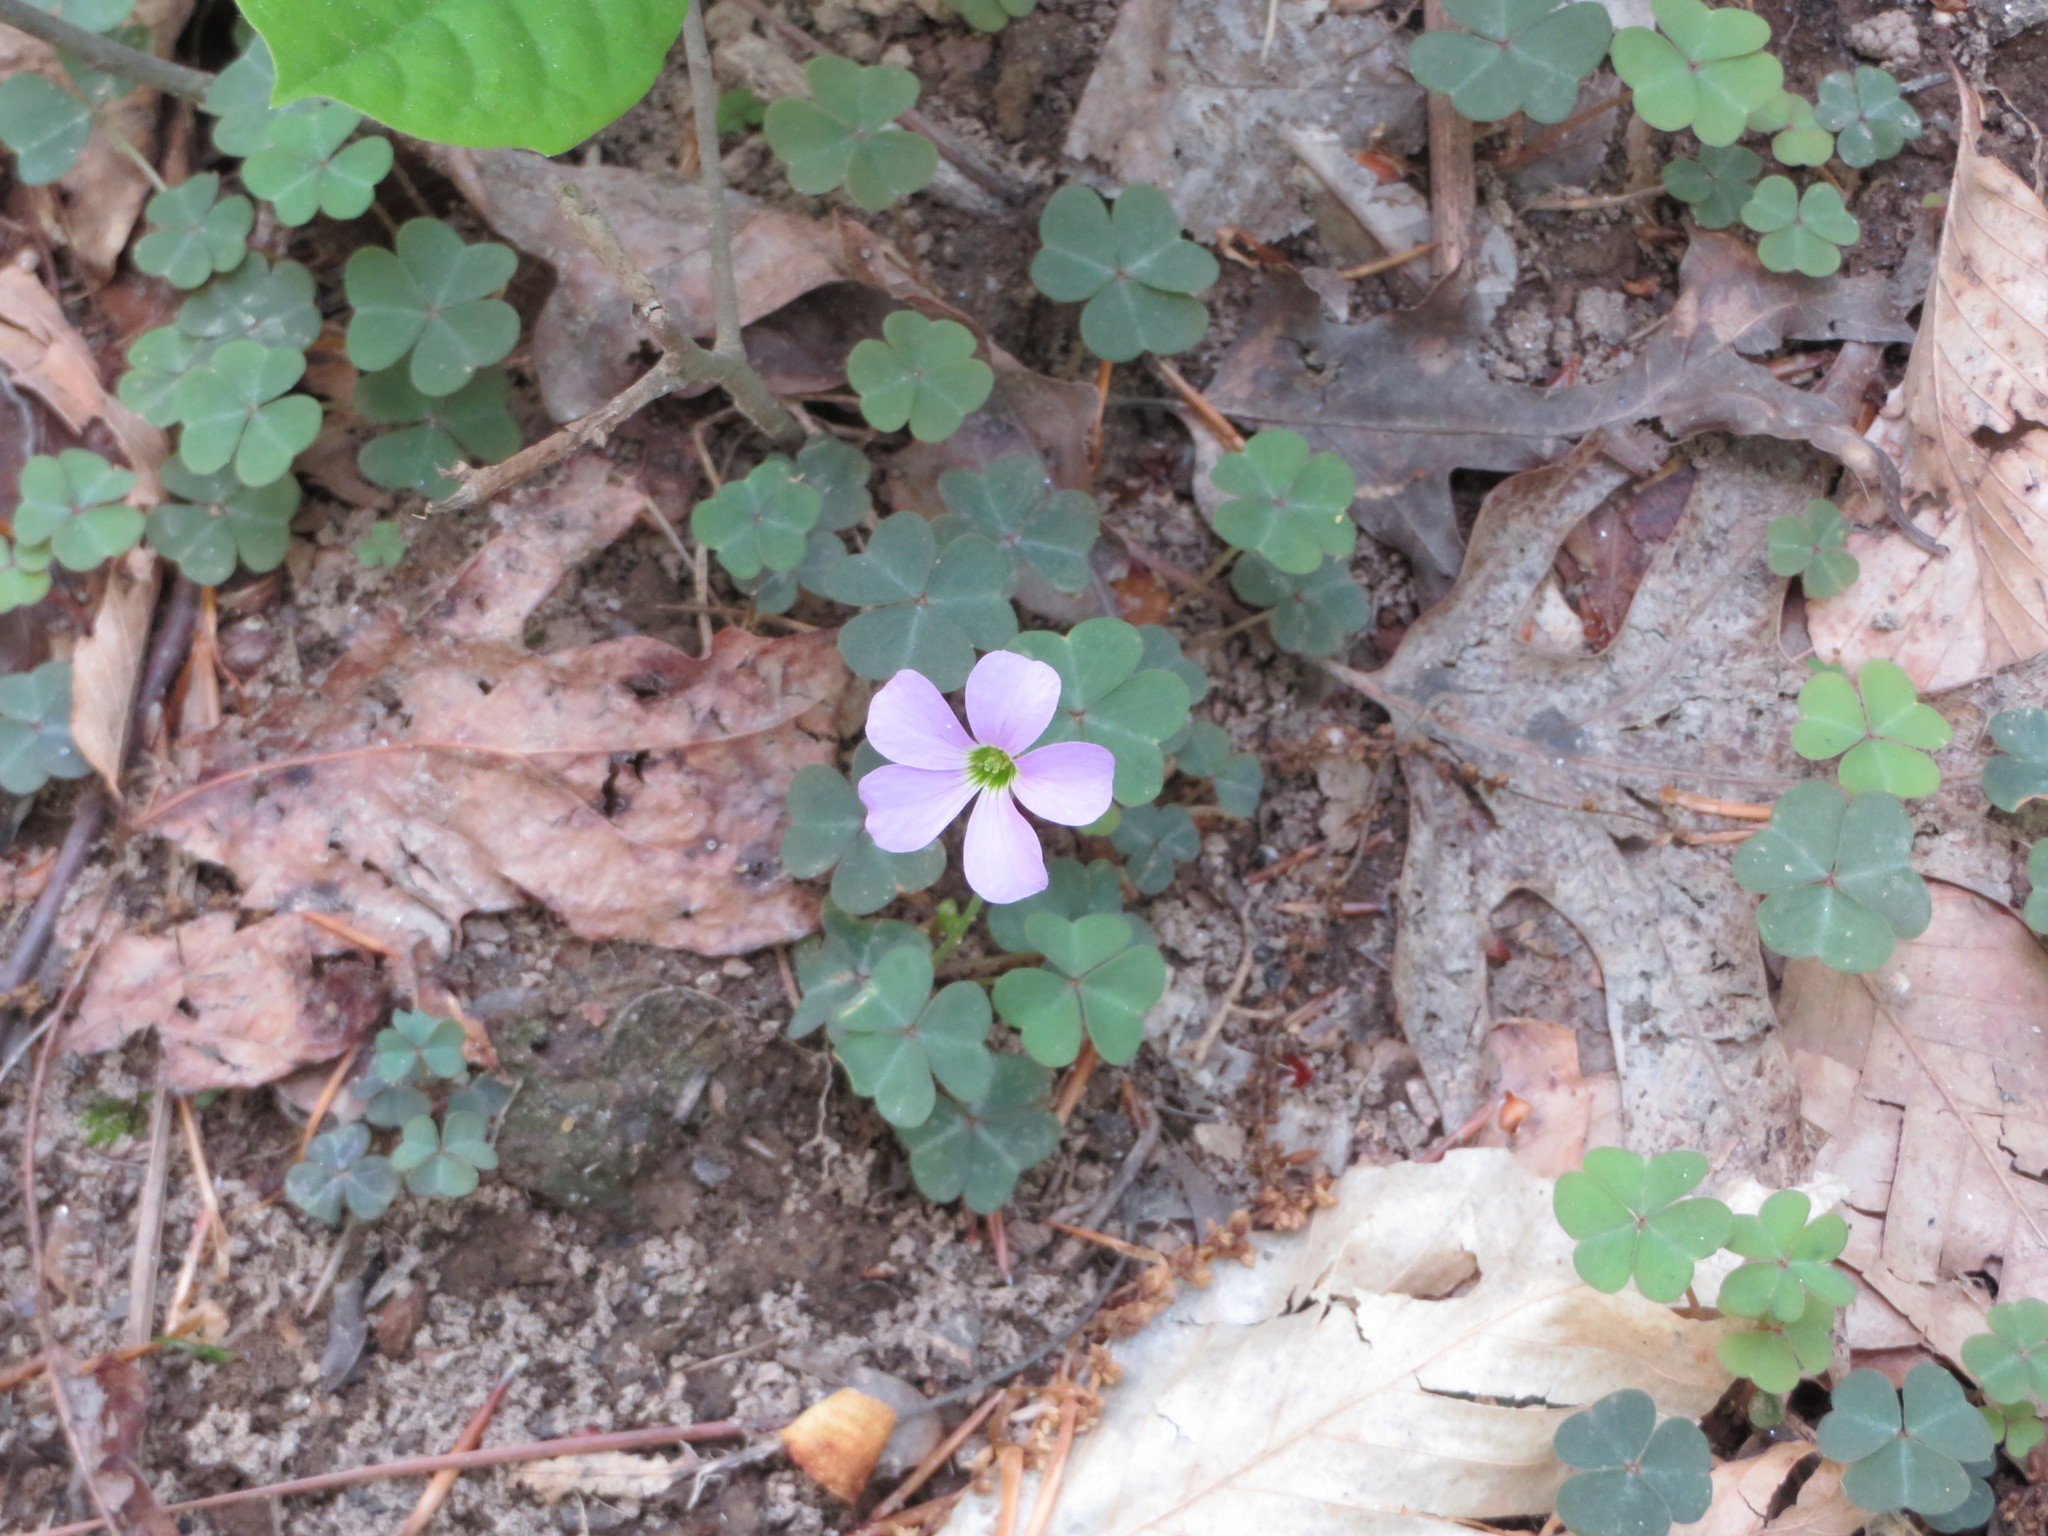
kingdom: Plantae
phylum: Tracheophyta
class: Magnoliopsida
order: Oxalidales
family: Oxalidaceae
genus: Oxalis
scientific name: Oxalis violacea
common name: Violet wood-sorrel
